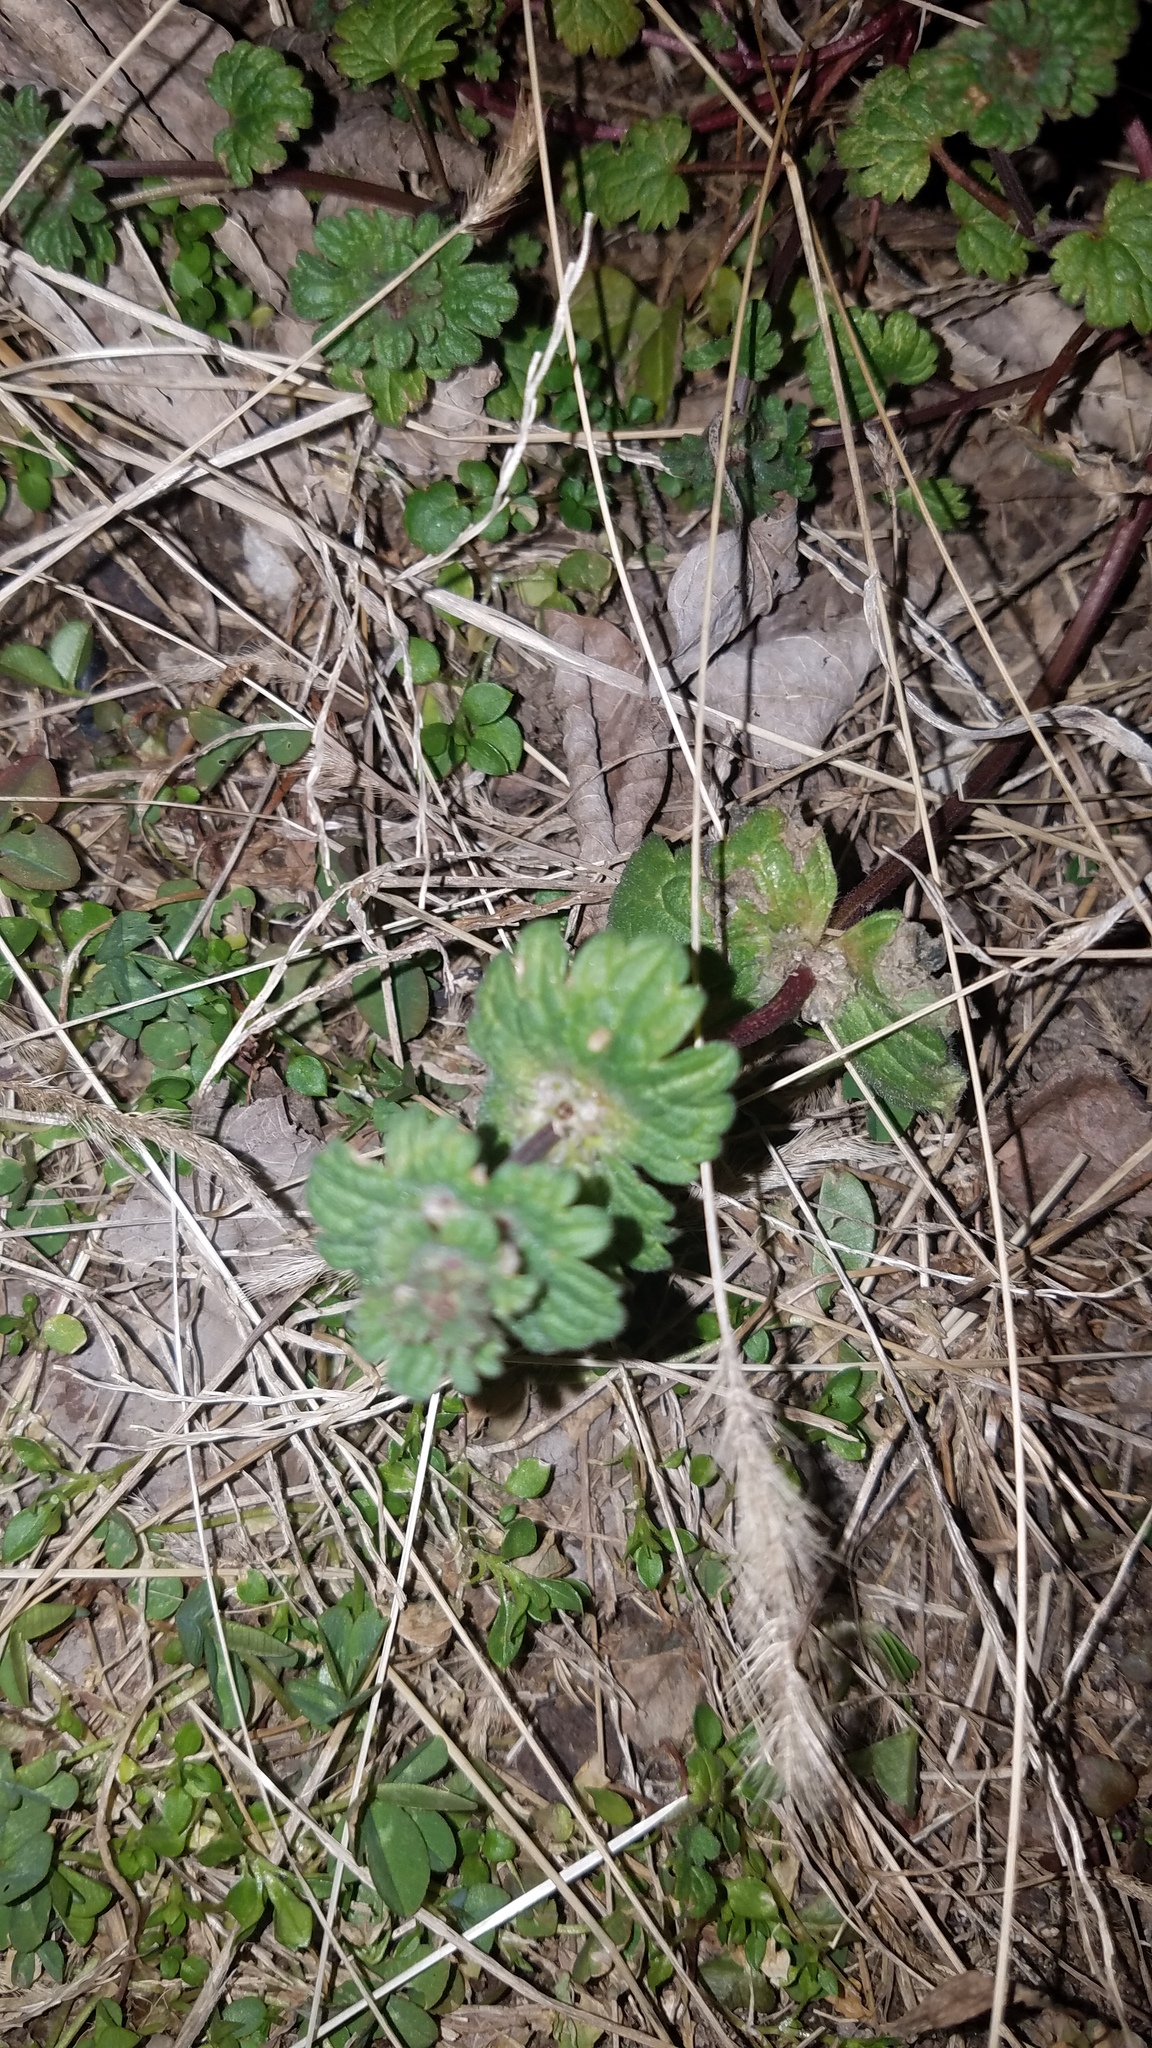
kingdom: Plantae
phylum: Tracheophyta
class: Magnoliopsida
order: Lamiales
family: Lamiaceae
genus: Lamium
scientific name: Lamium amplexicaule
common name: Henbit dead-nettle
